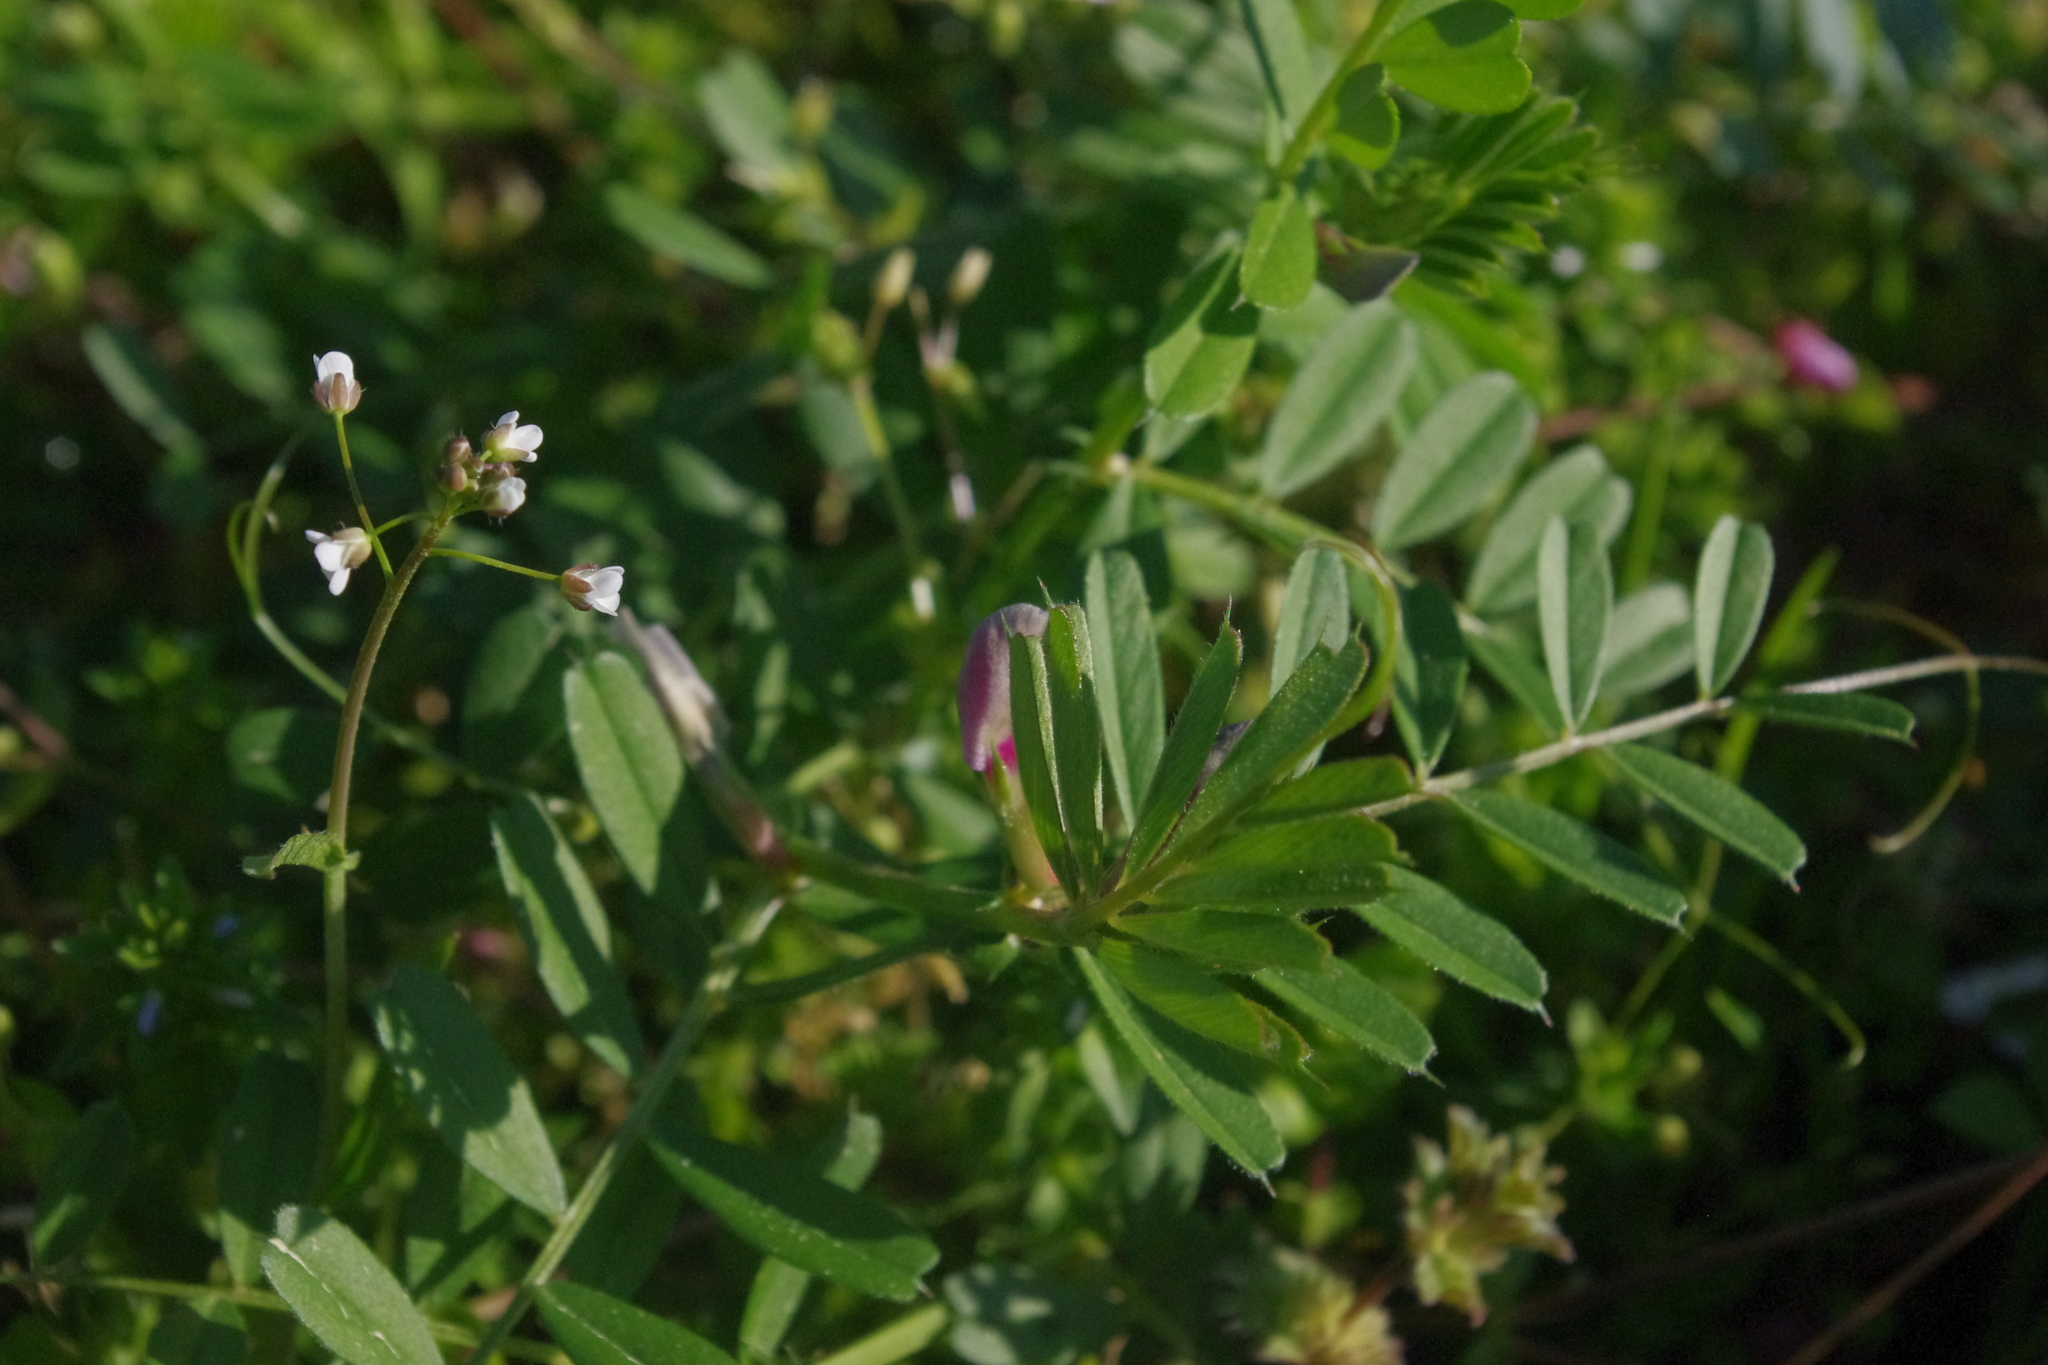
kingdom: Plantae
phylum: Tracheophyta
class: Magnoliopsida
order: Fabales
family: Fabaceae
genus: Vicia
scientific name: Vicia sativa
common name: Garden vetch
